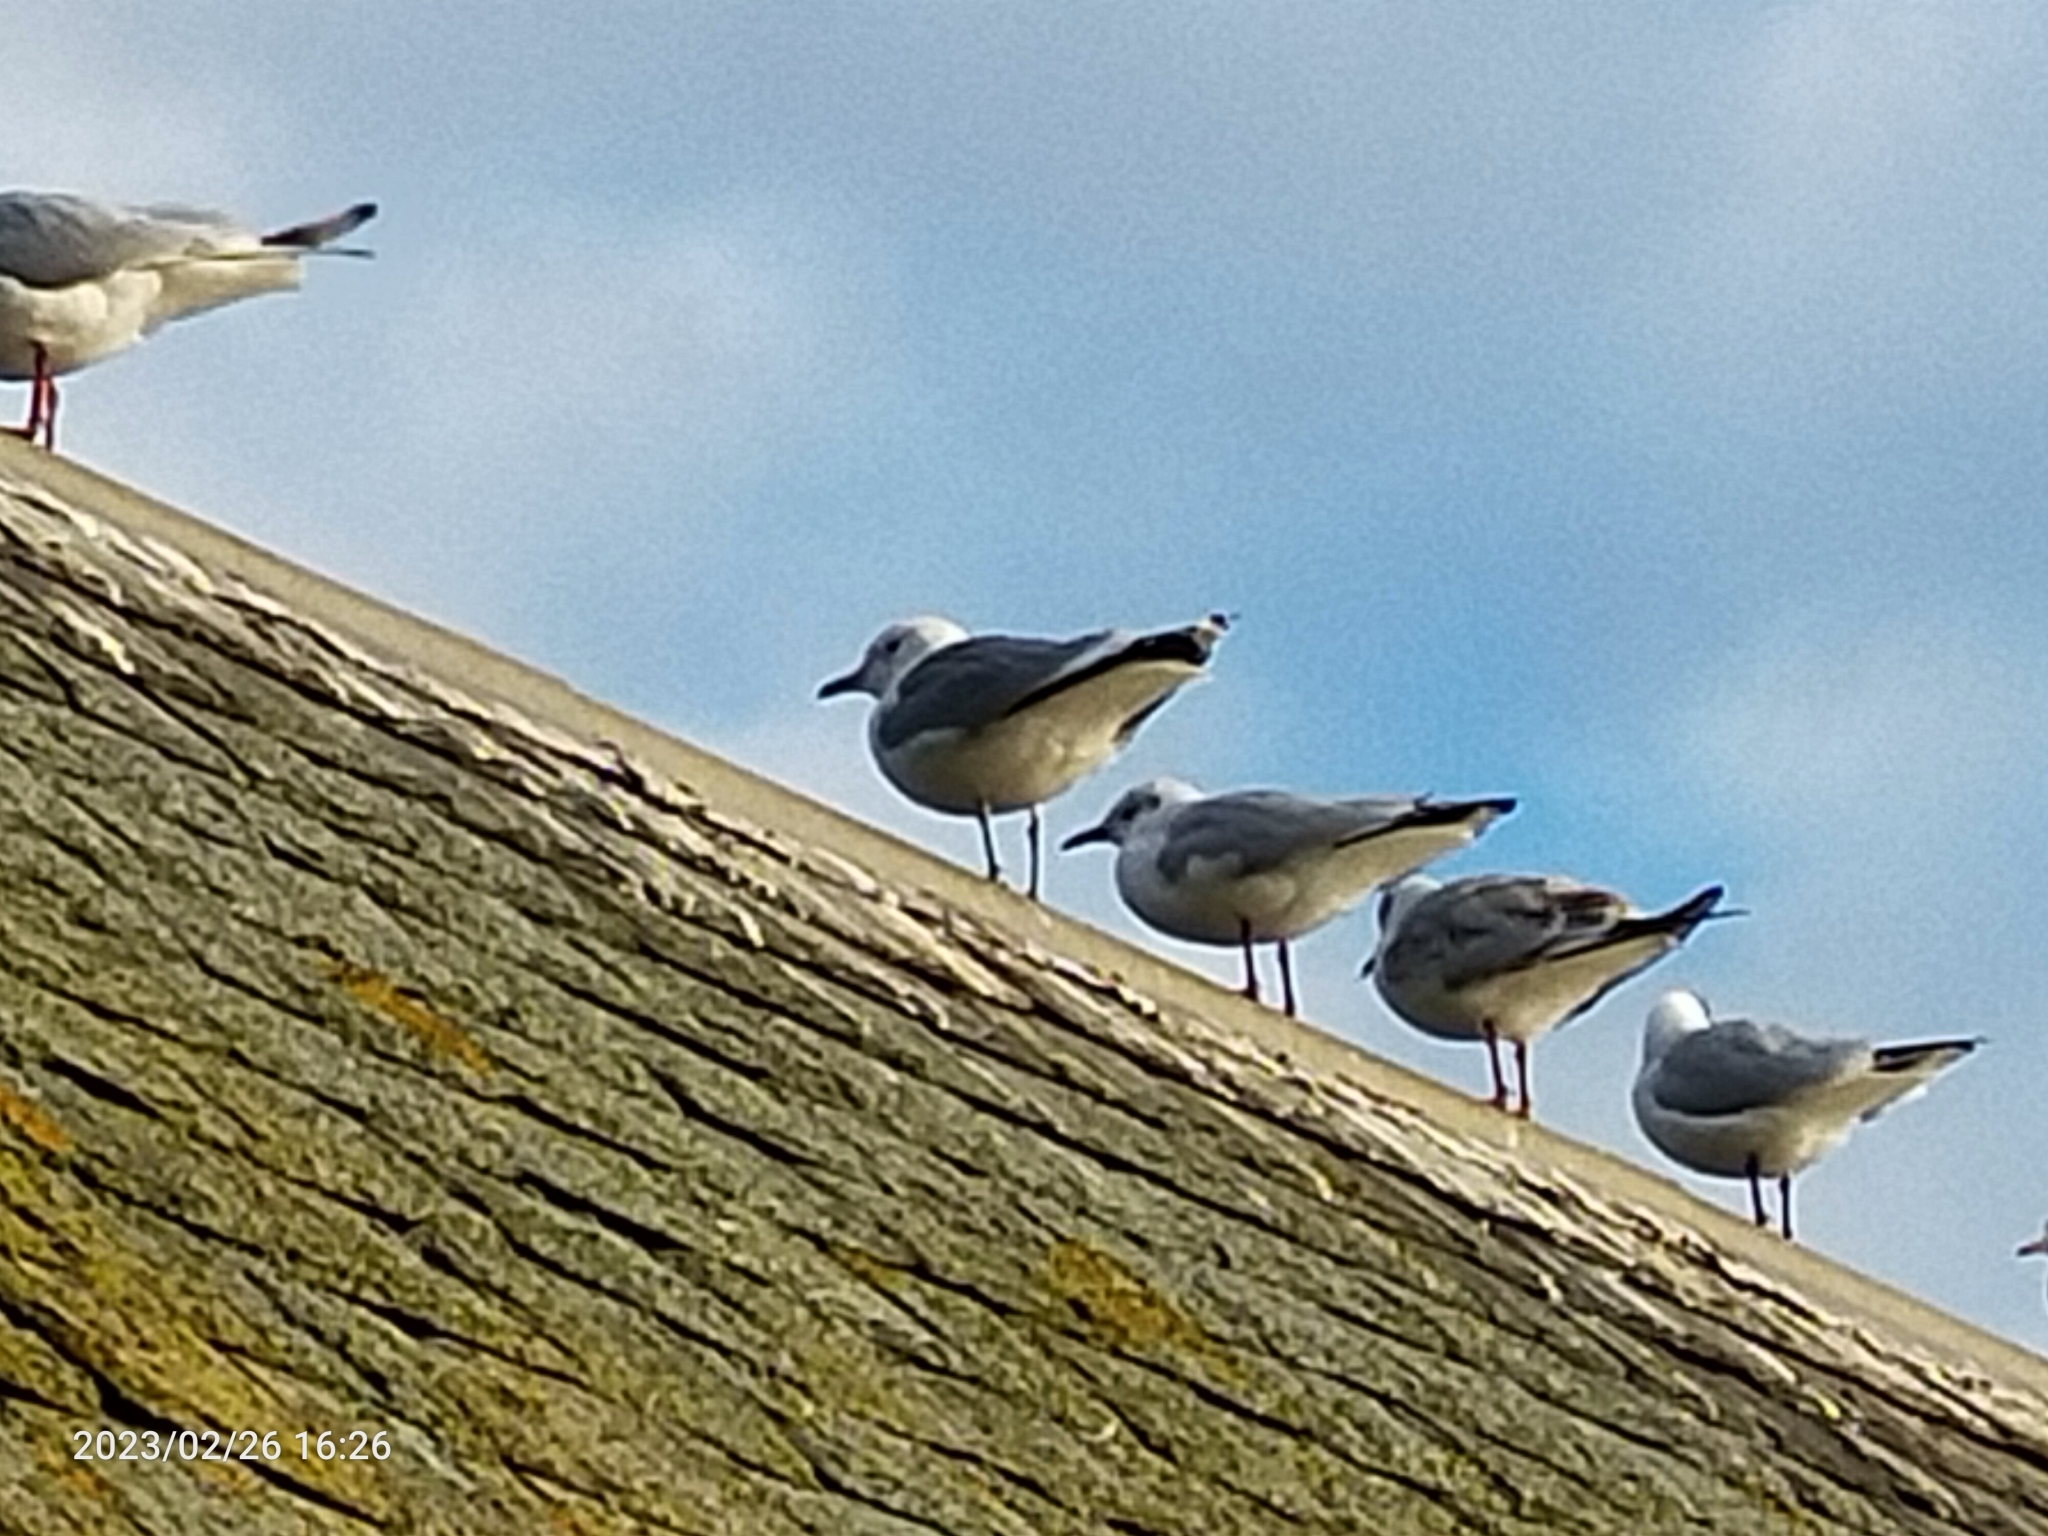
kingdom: Animalia
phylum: Chordata
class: Aves
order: Charadriiformes
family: Laridae
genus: Larus
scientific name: Larus canus
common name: Mew gull
